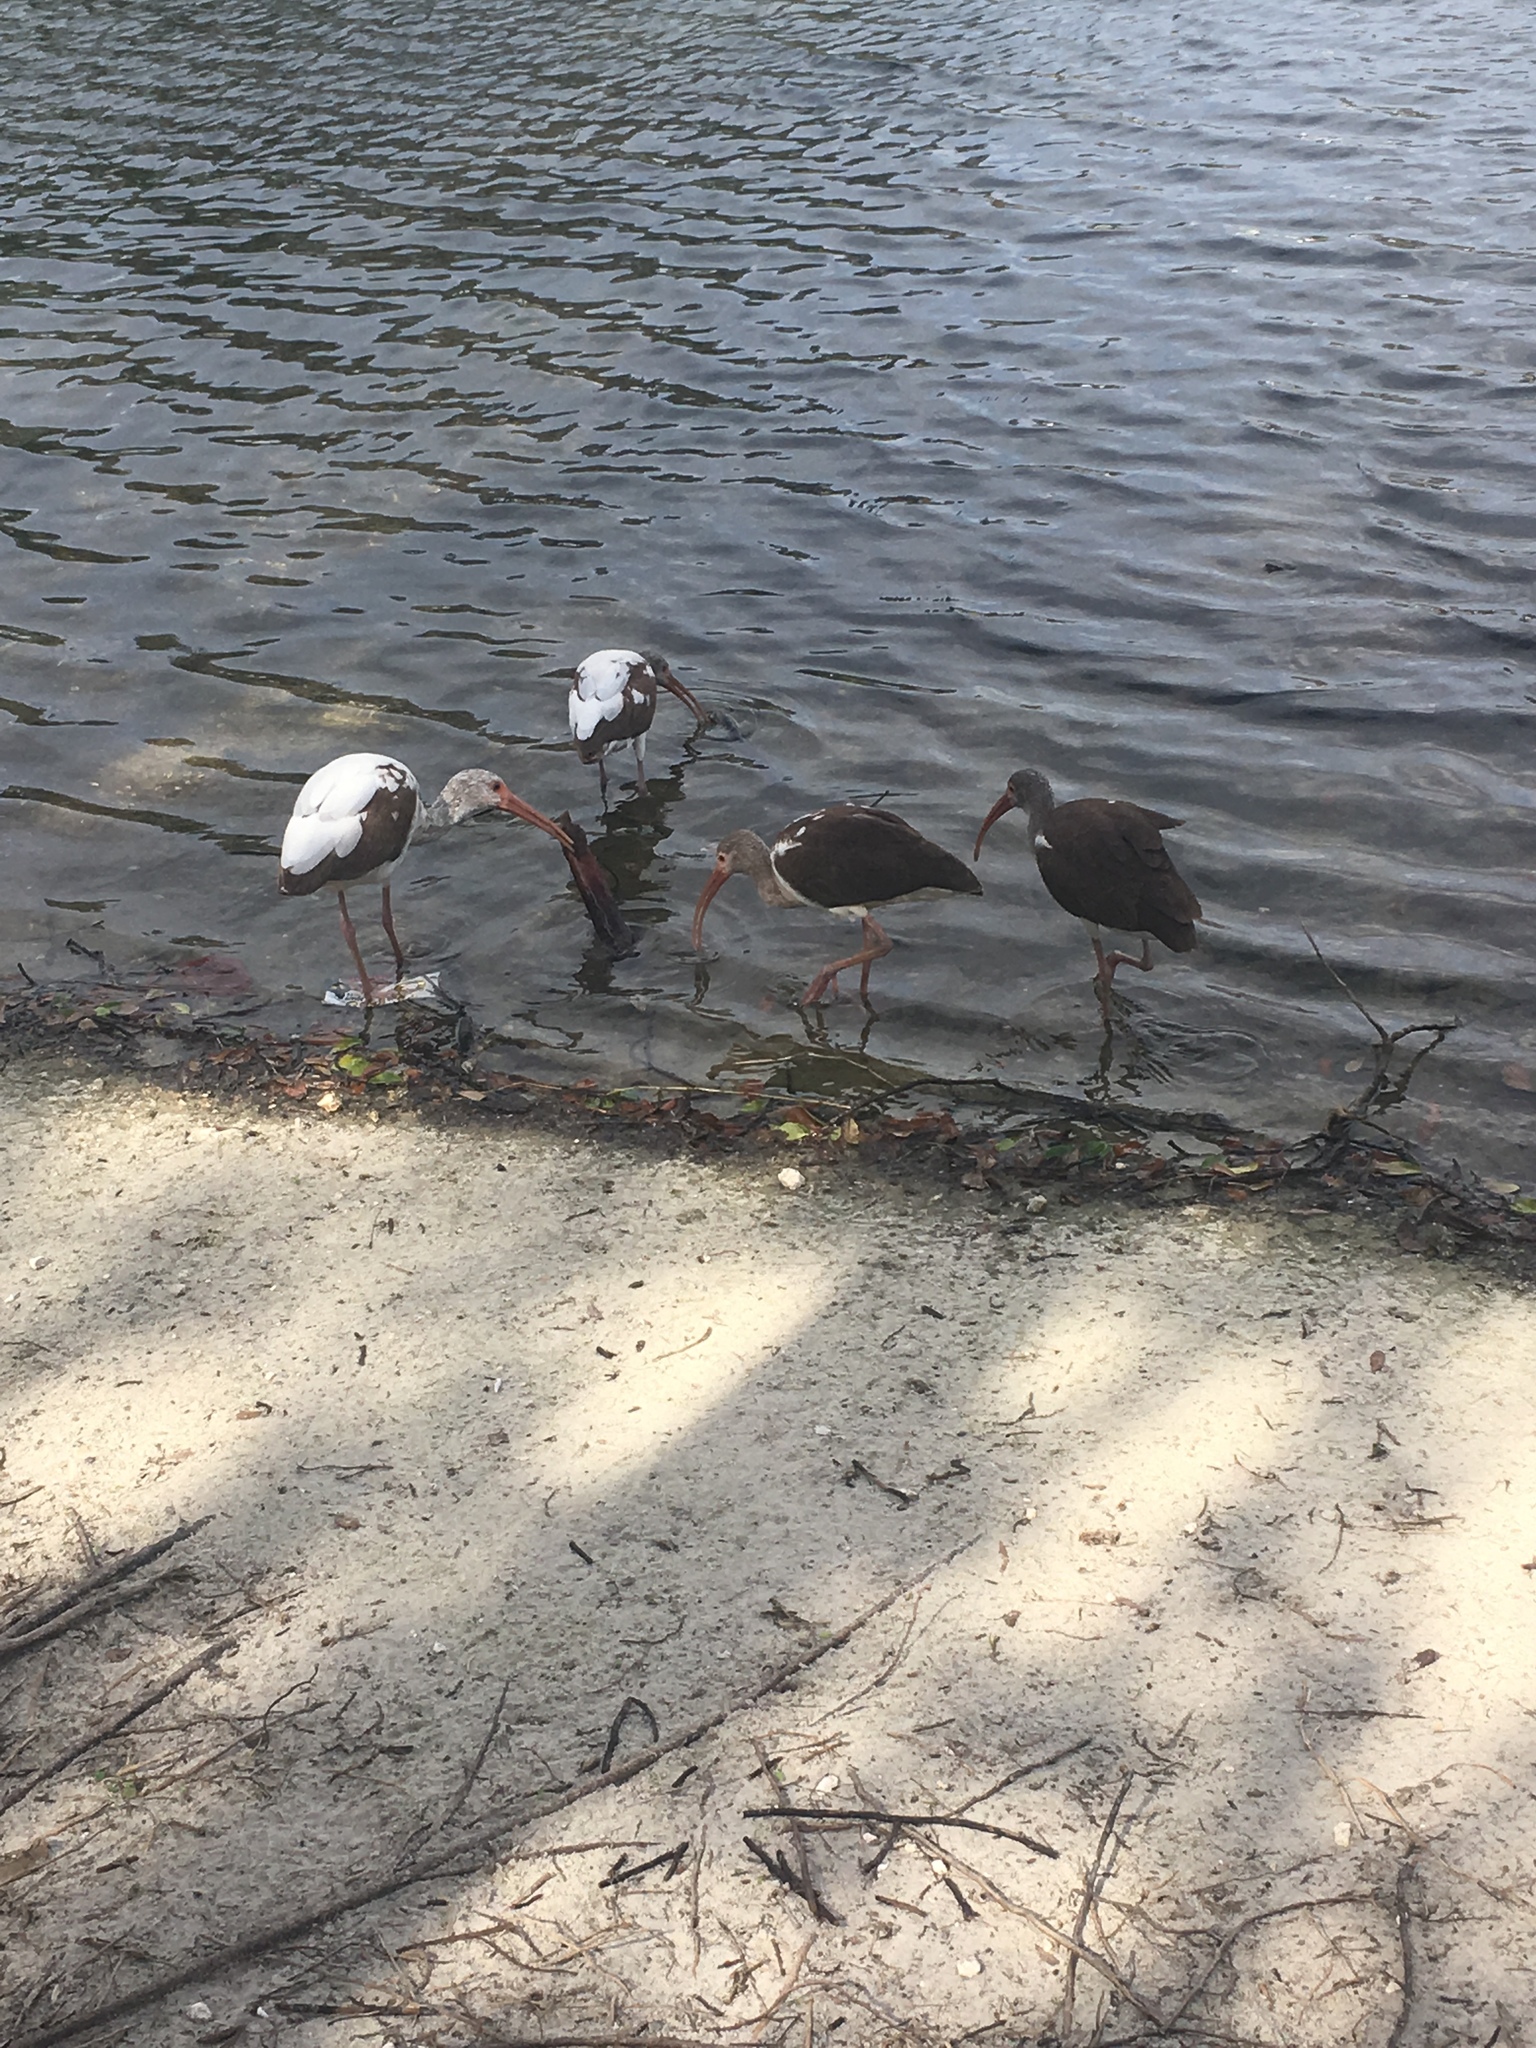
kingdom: Animalia
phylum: Chordata
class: Aves
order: Pelecaniformes
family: Threskiornithidae
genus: Eudocimus
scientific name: Eudocimus albus
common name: White ibis
